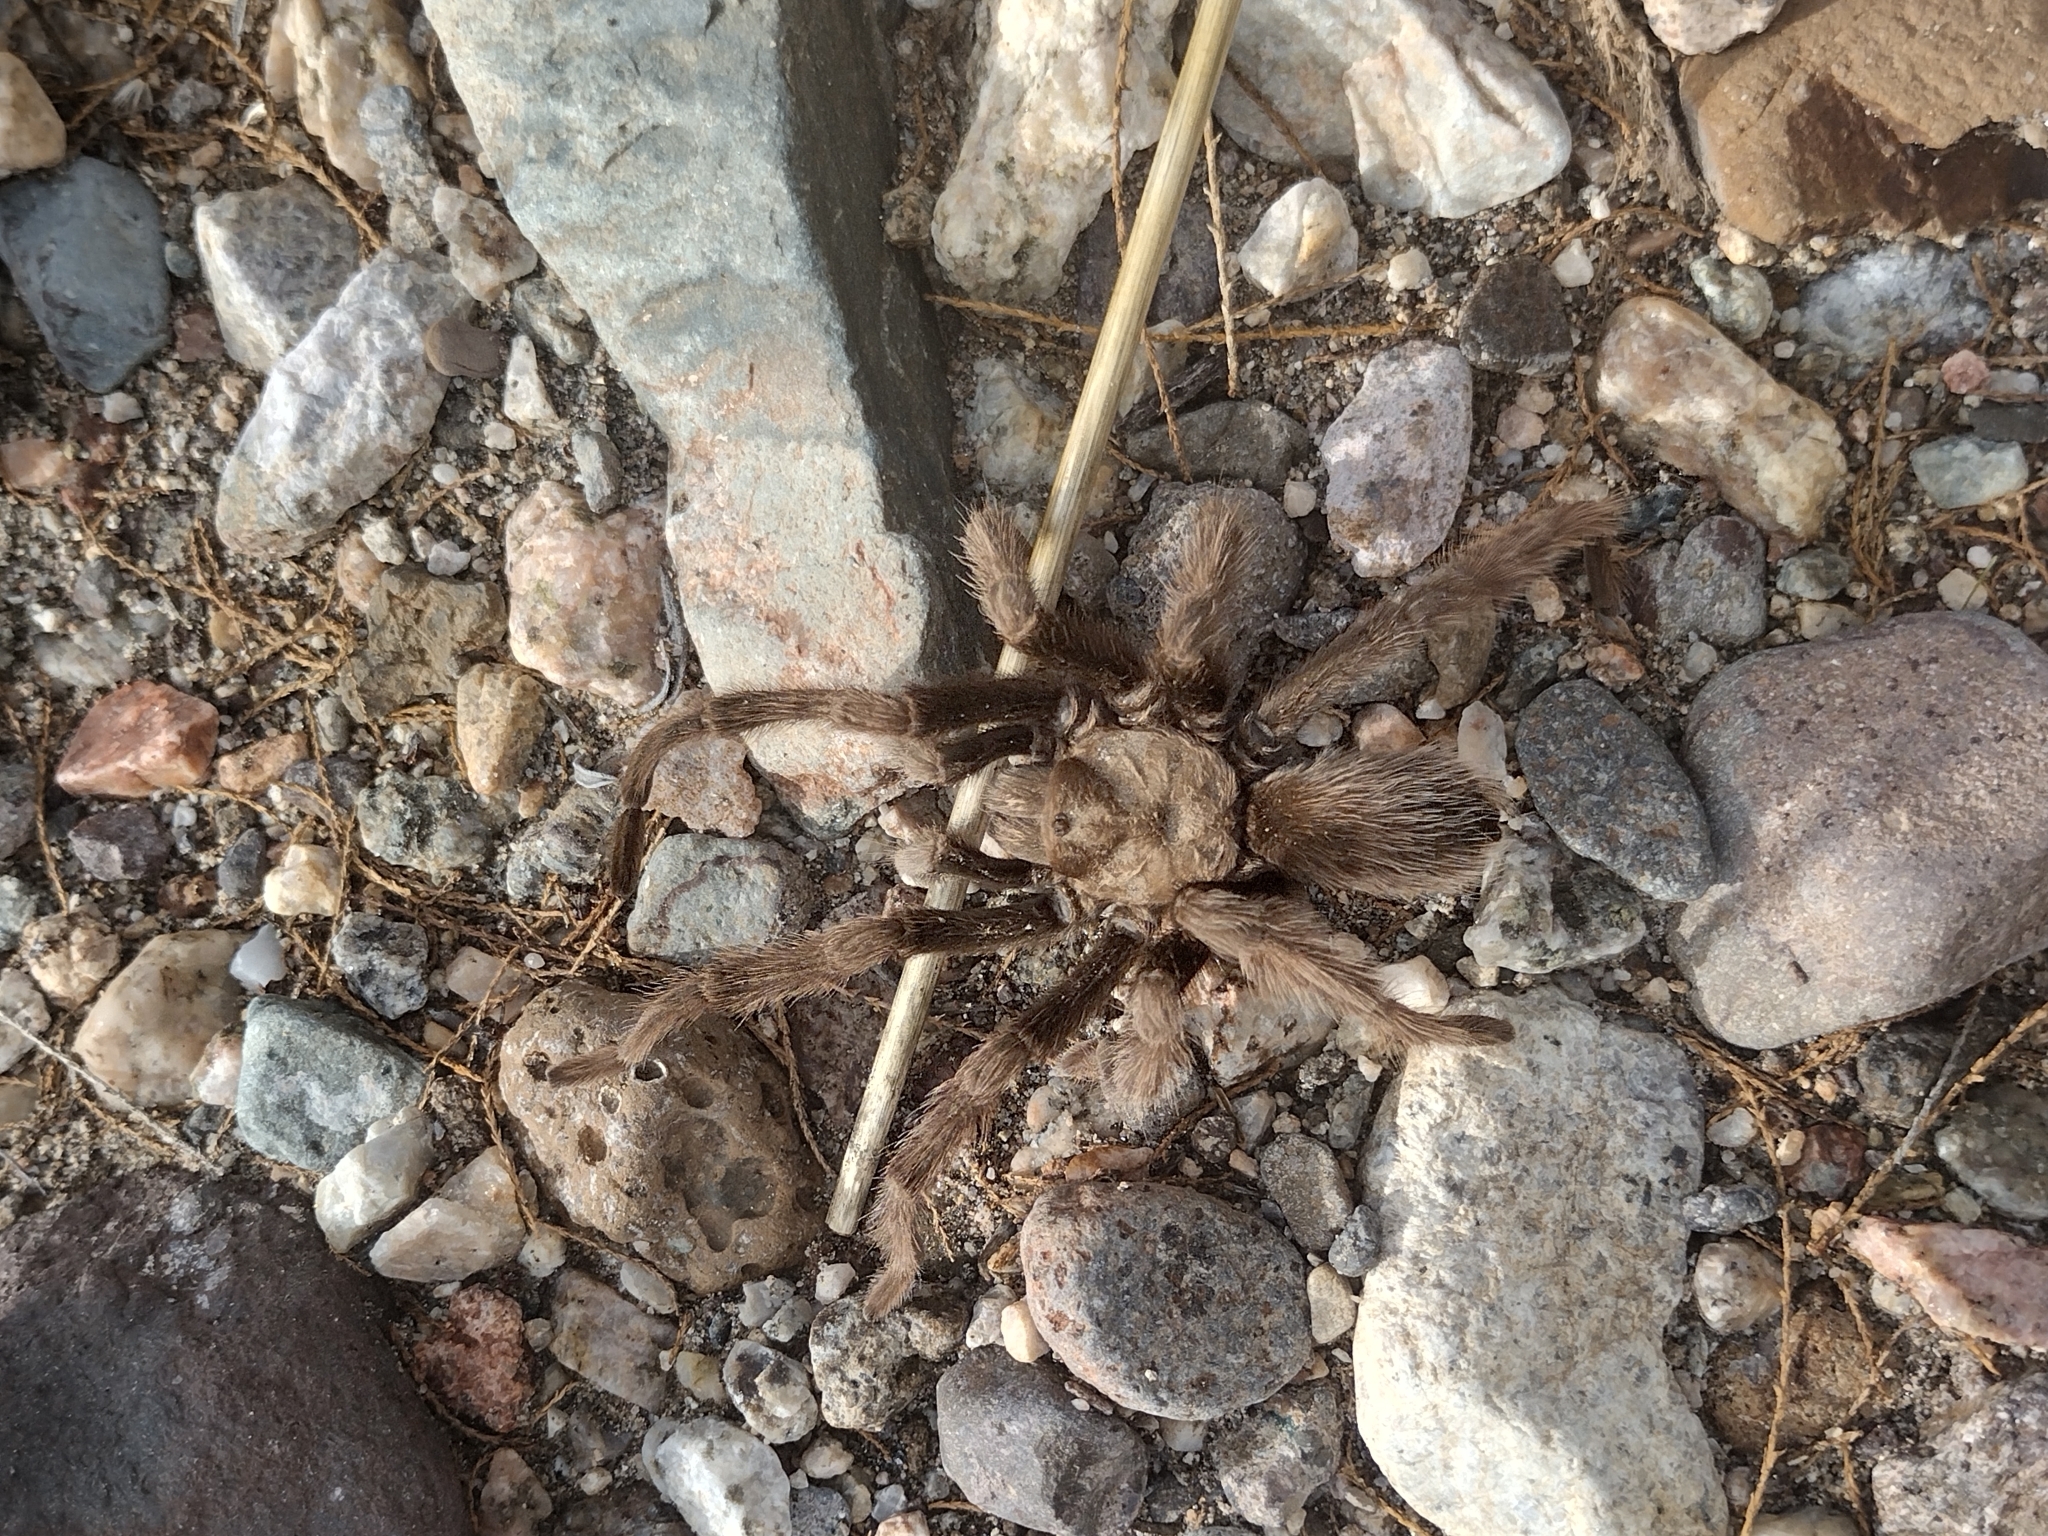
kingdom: Animalia
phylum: Arthropoda
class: Arachnida
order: Araneae
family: Theraphosidae
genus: Aphonopelma
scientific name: Aphonopelma eutylenum
